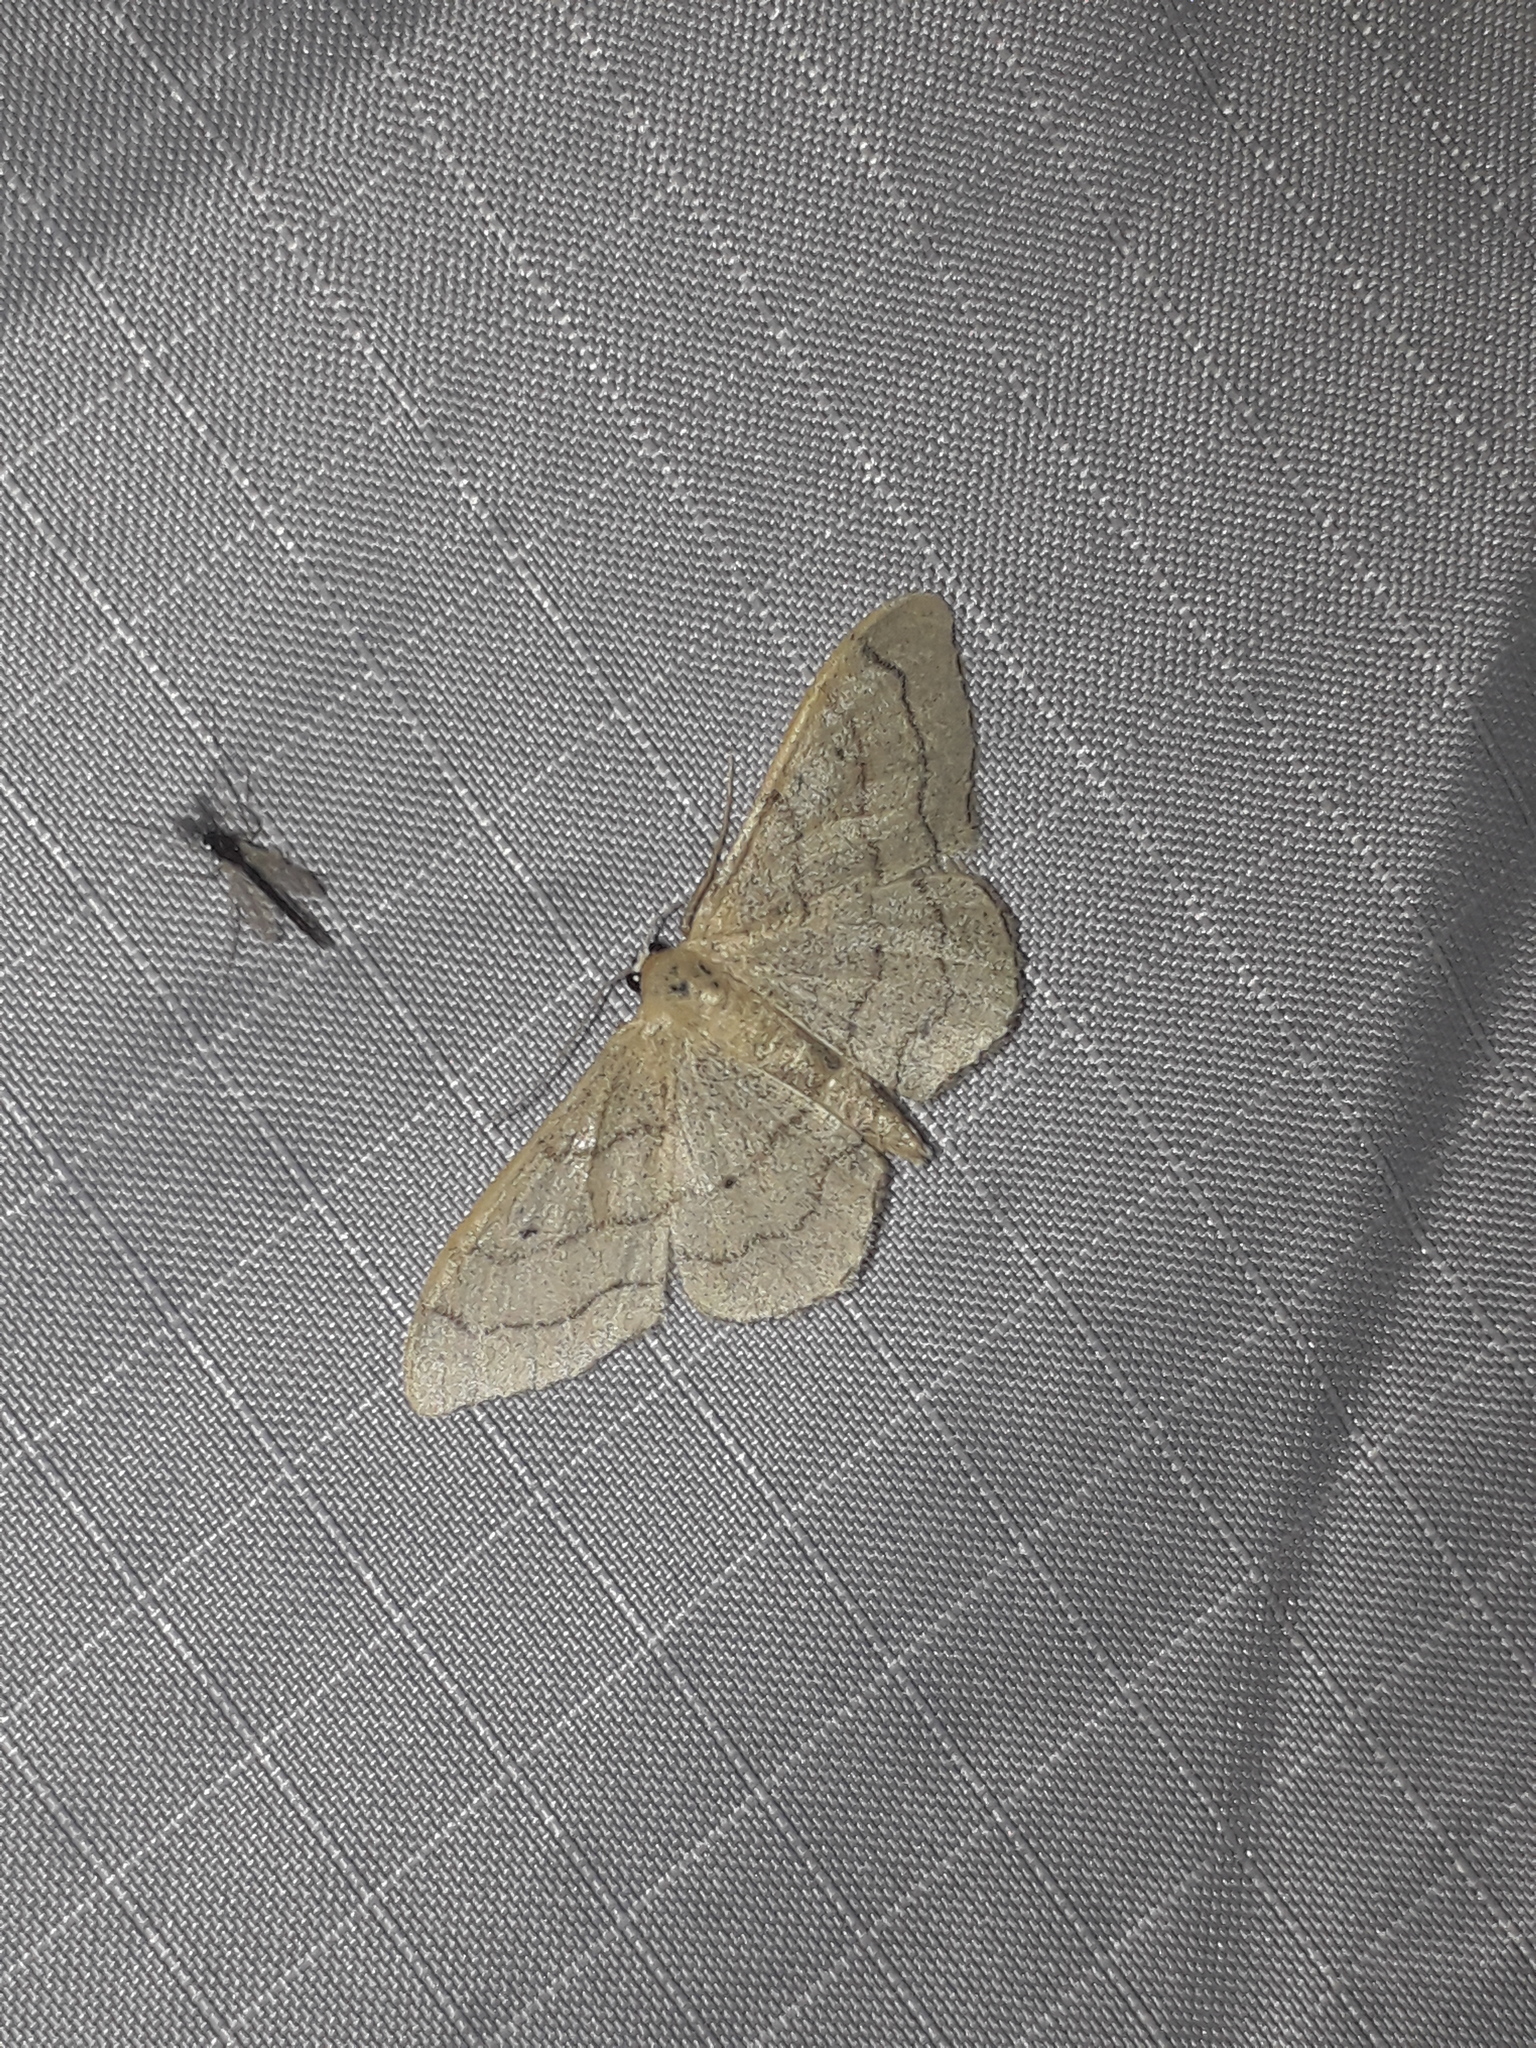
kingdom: Animalia
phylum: Arthropoda
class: Insecta
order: Lepidoptera
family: Geometridae
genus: Idaea
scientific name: Idaea aversata
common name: Riband wave
